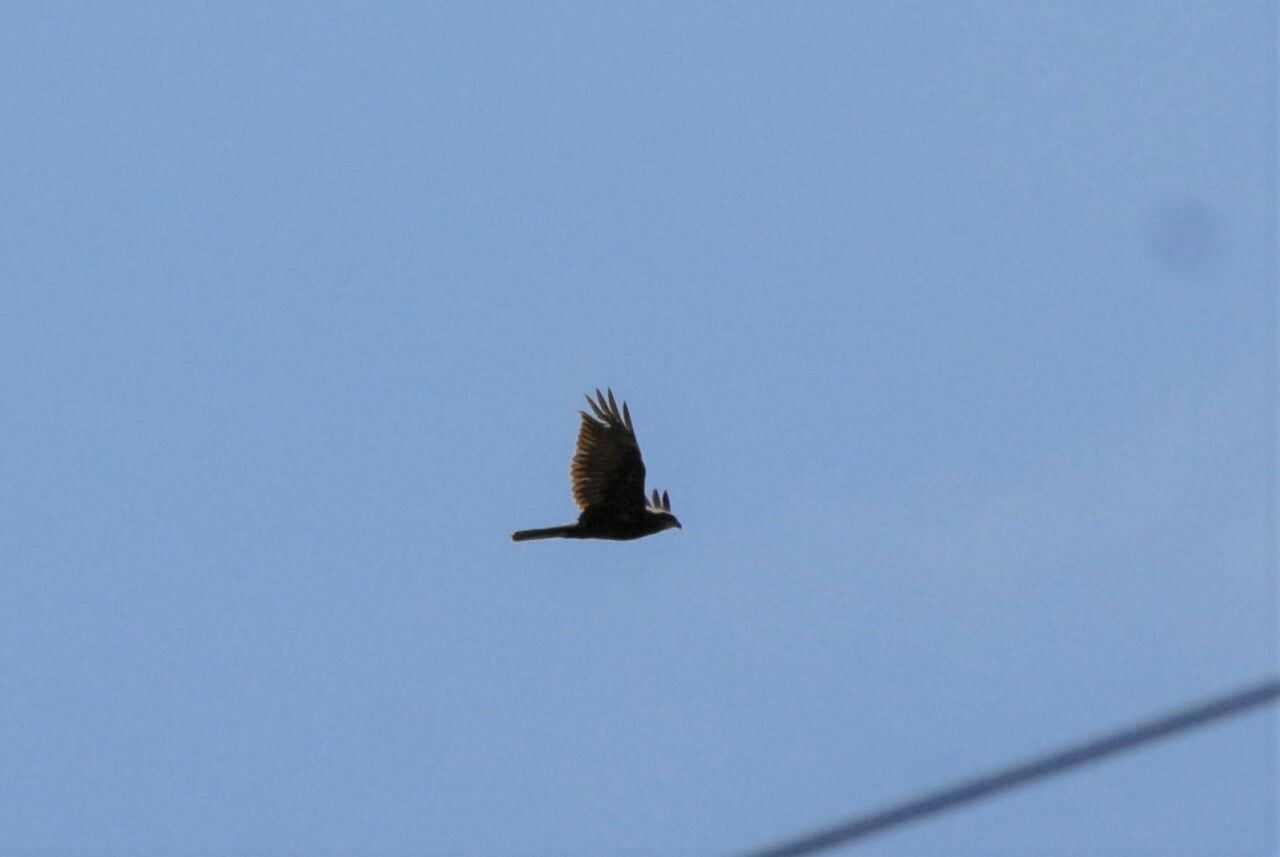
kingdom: Animalia
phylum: Chordata
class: Aves
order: Accipitriformes
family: Accipitridae
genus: Circus
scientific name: Circus aeruginosus
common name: Western marsh harrier
